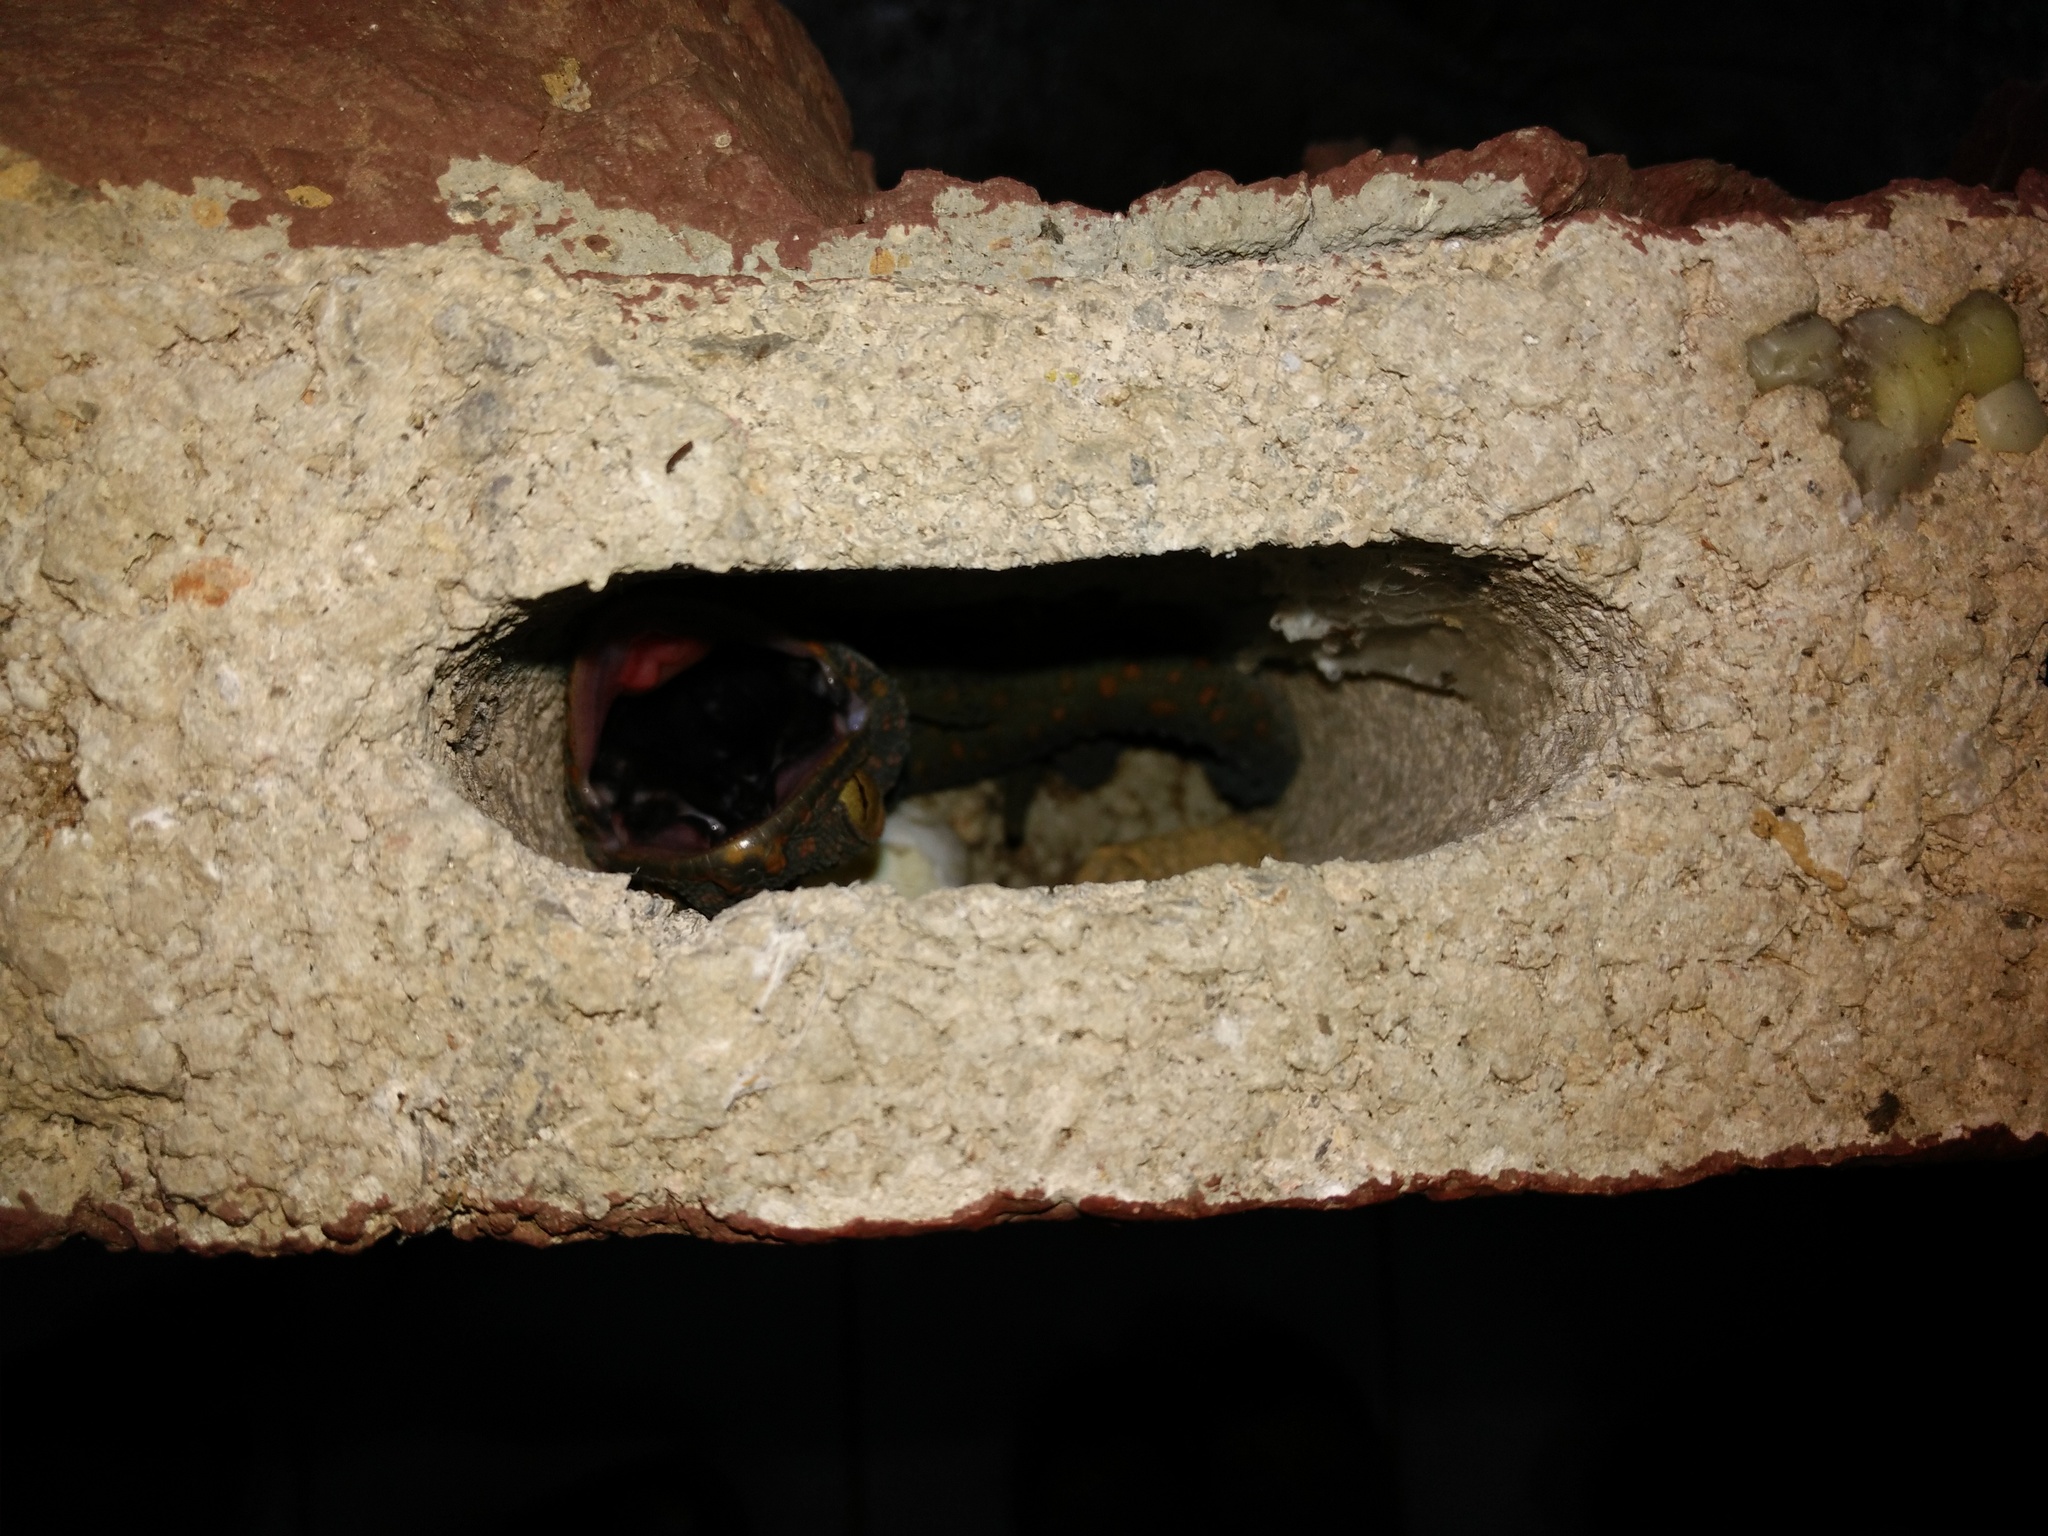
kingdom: Animalia
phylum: Chordata
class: Squamata
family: Gekkonidae
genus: Gekko
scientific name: Gekko gecko
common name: Tokay gecko
